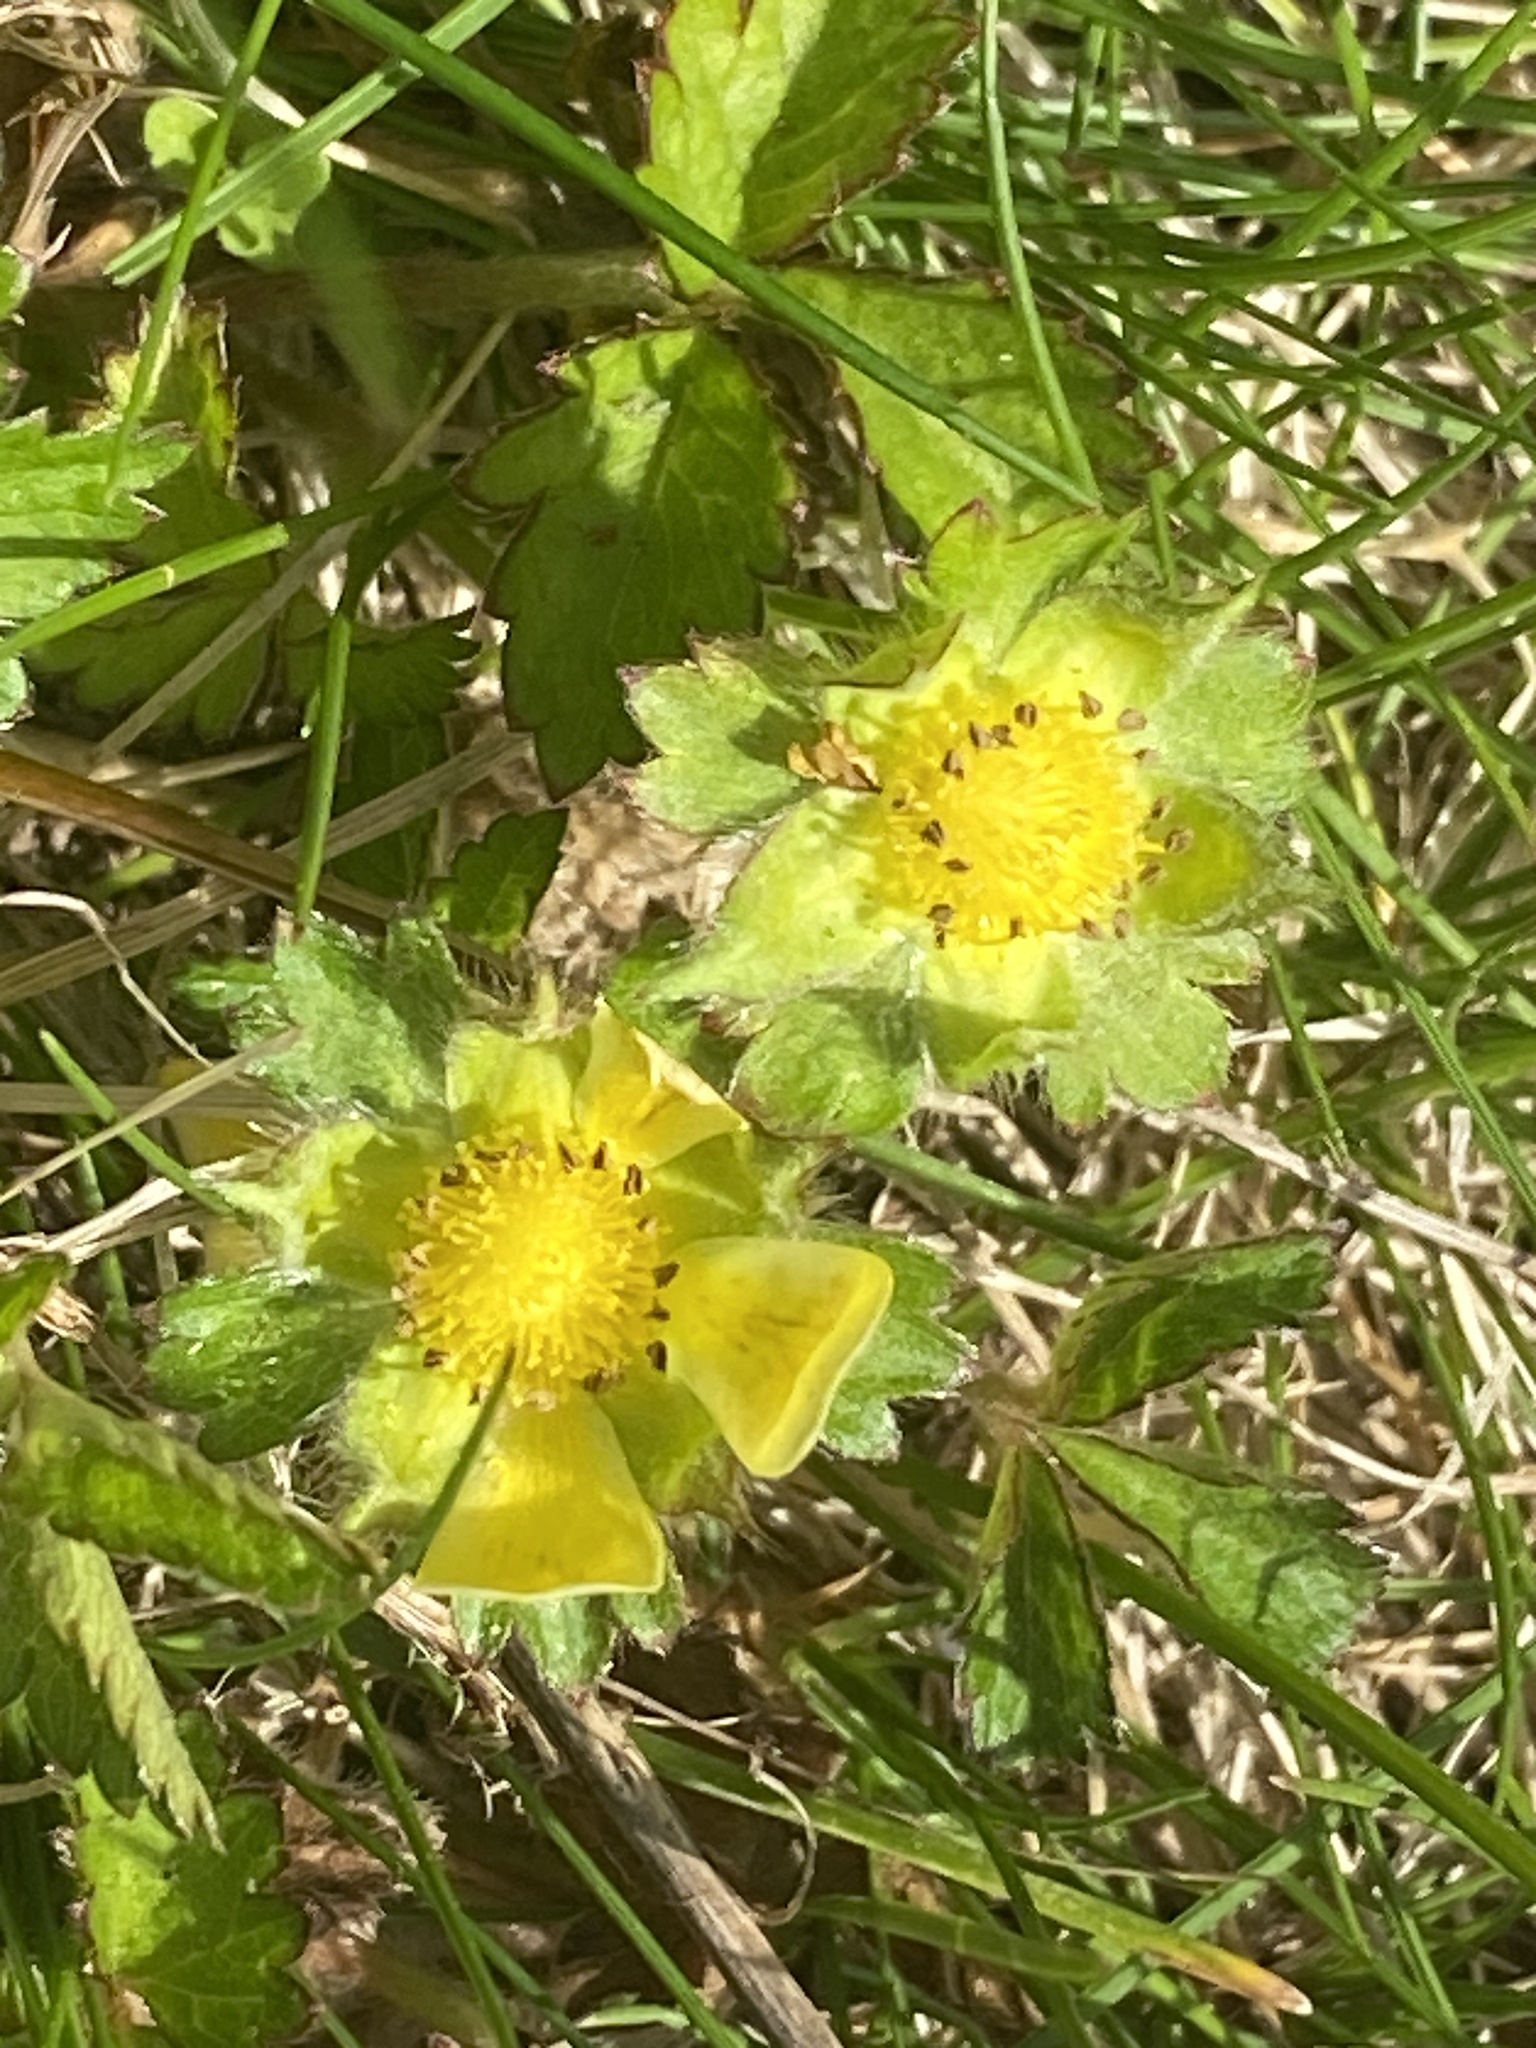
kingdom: Plantae
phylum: Tracheophyta
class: Magnoliopsida
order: Rosales
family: Rosaceae
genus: Potentilla
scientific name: Potentilla indica
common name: Yellow-flowered strawberry
